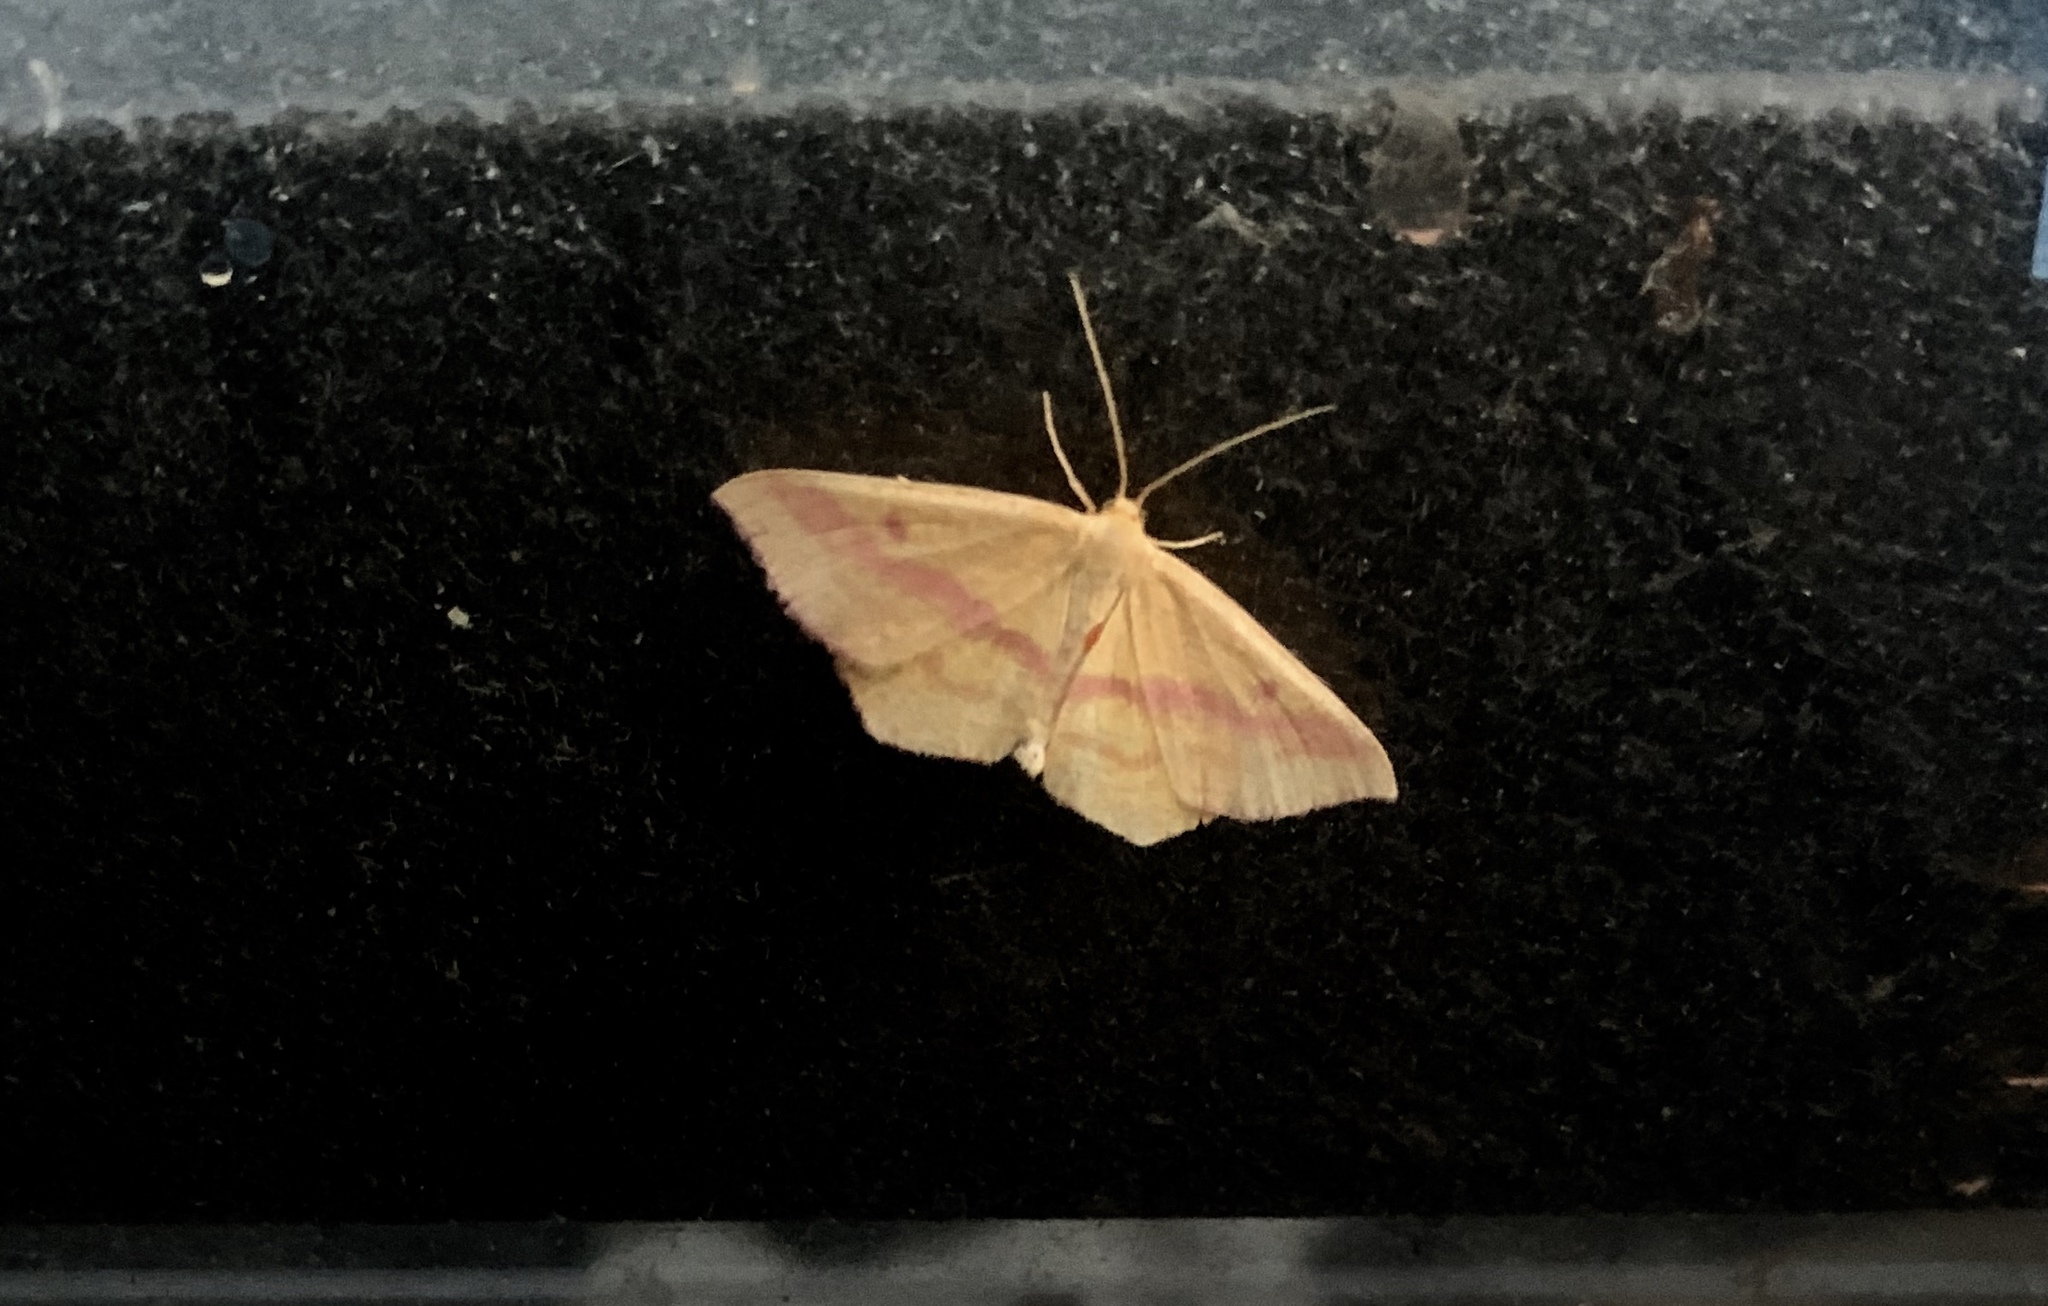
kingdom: Animalia
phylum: Arthropoda
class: Insecta
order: Lepidoptera
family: Geometridae
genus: Haematopis
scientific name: Haematopis grataria
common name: Chickweed geometer
